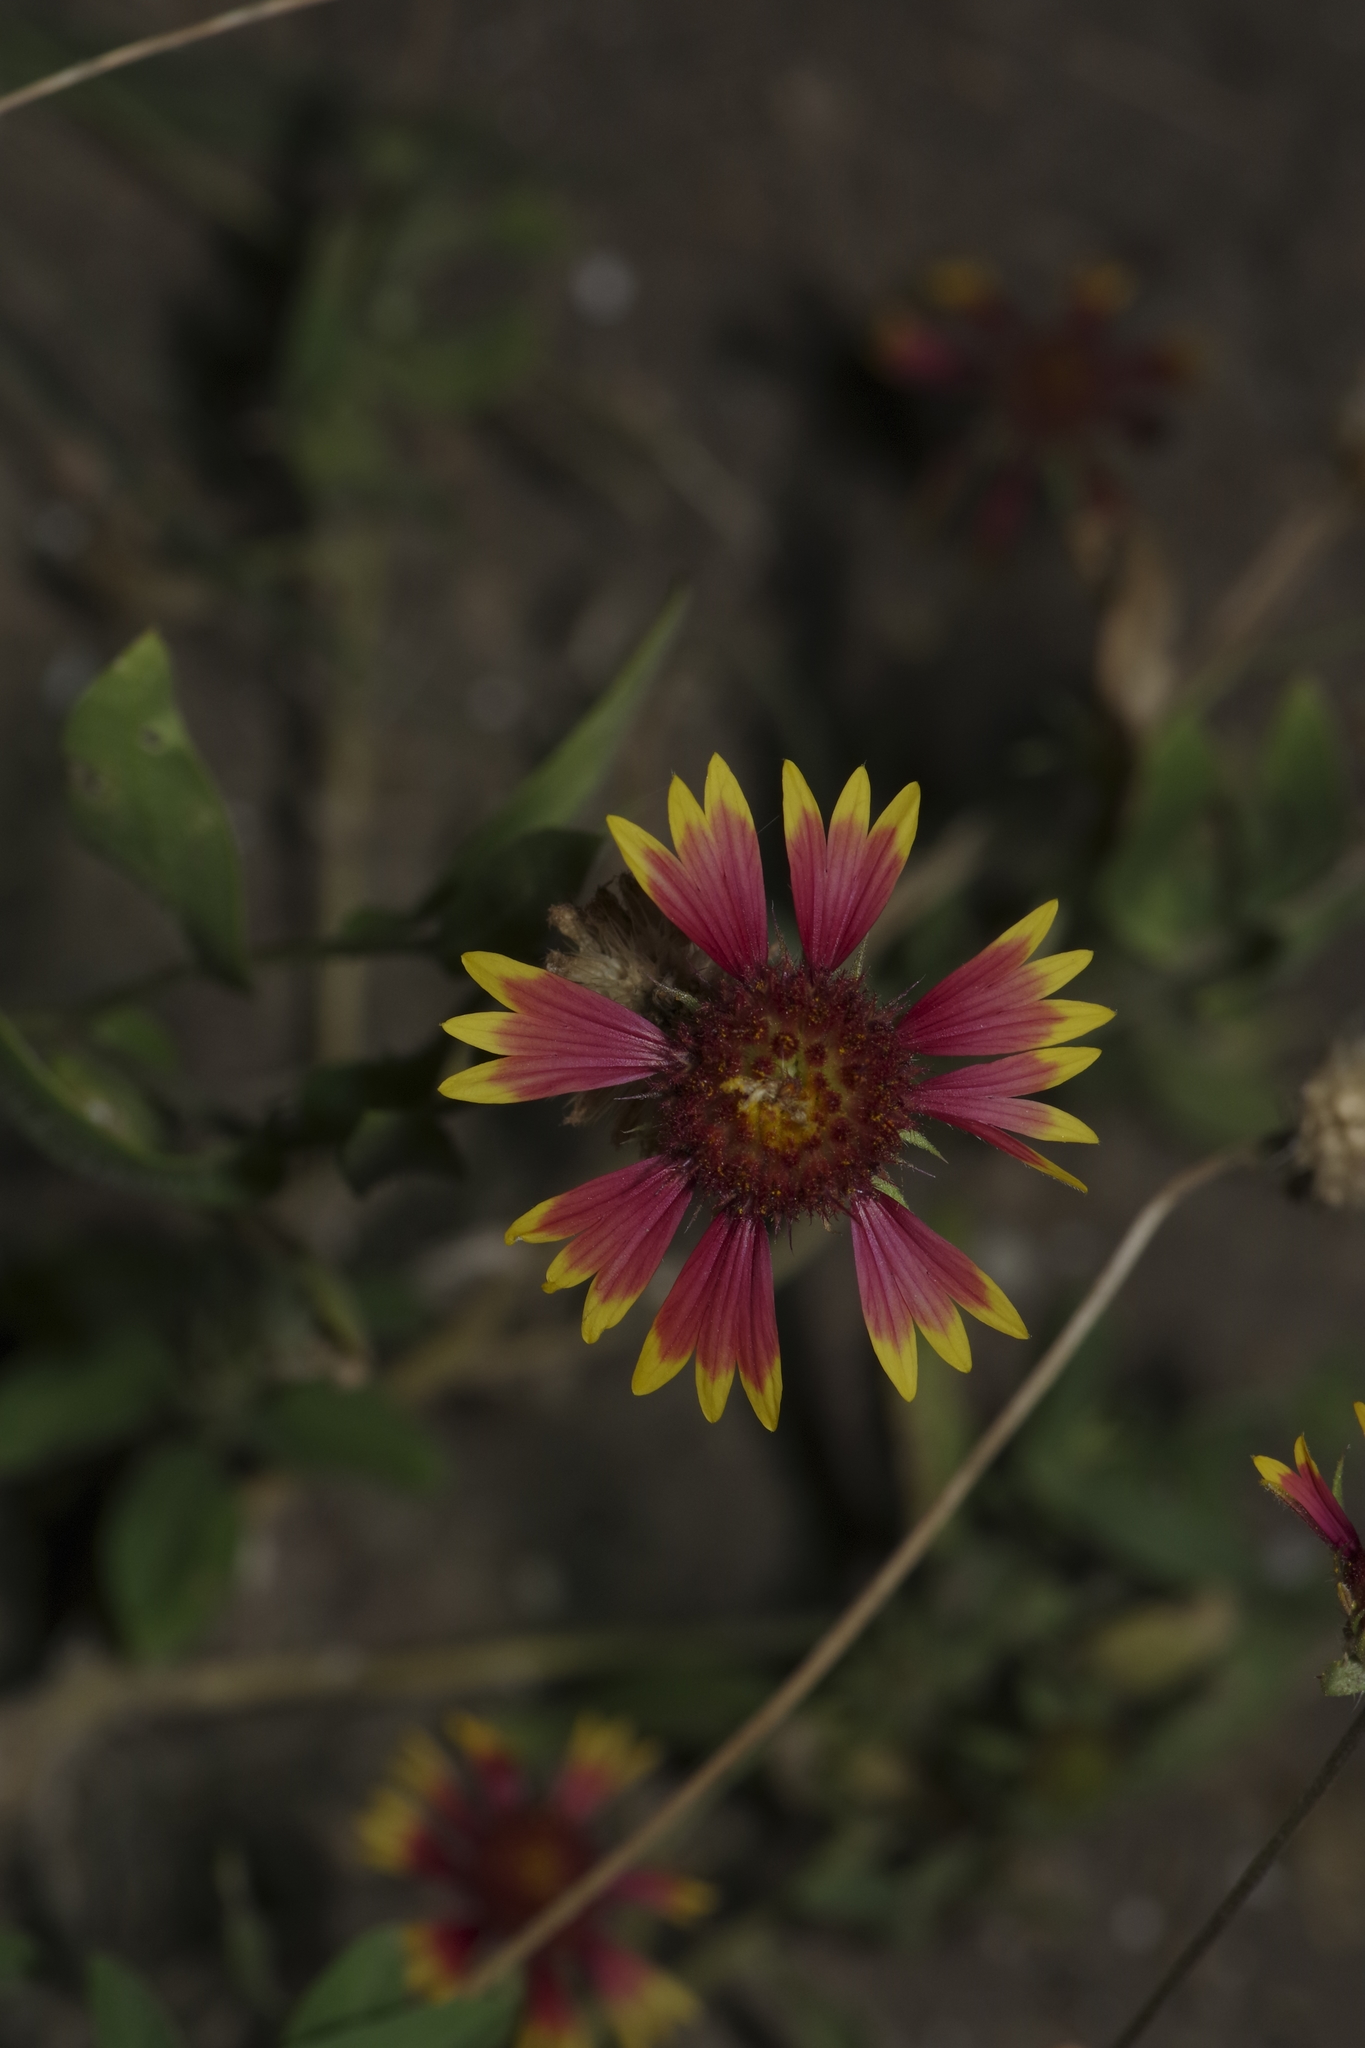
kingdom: Plantae
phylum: Tracheophyta
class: Magnoliopsida
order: Asterales
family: Asteraceae
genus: Gaillardia
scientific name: Gaillardia pulchella
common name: Firewheel
